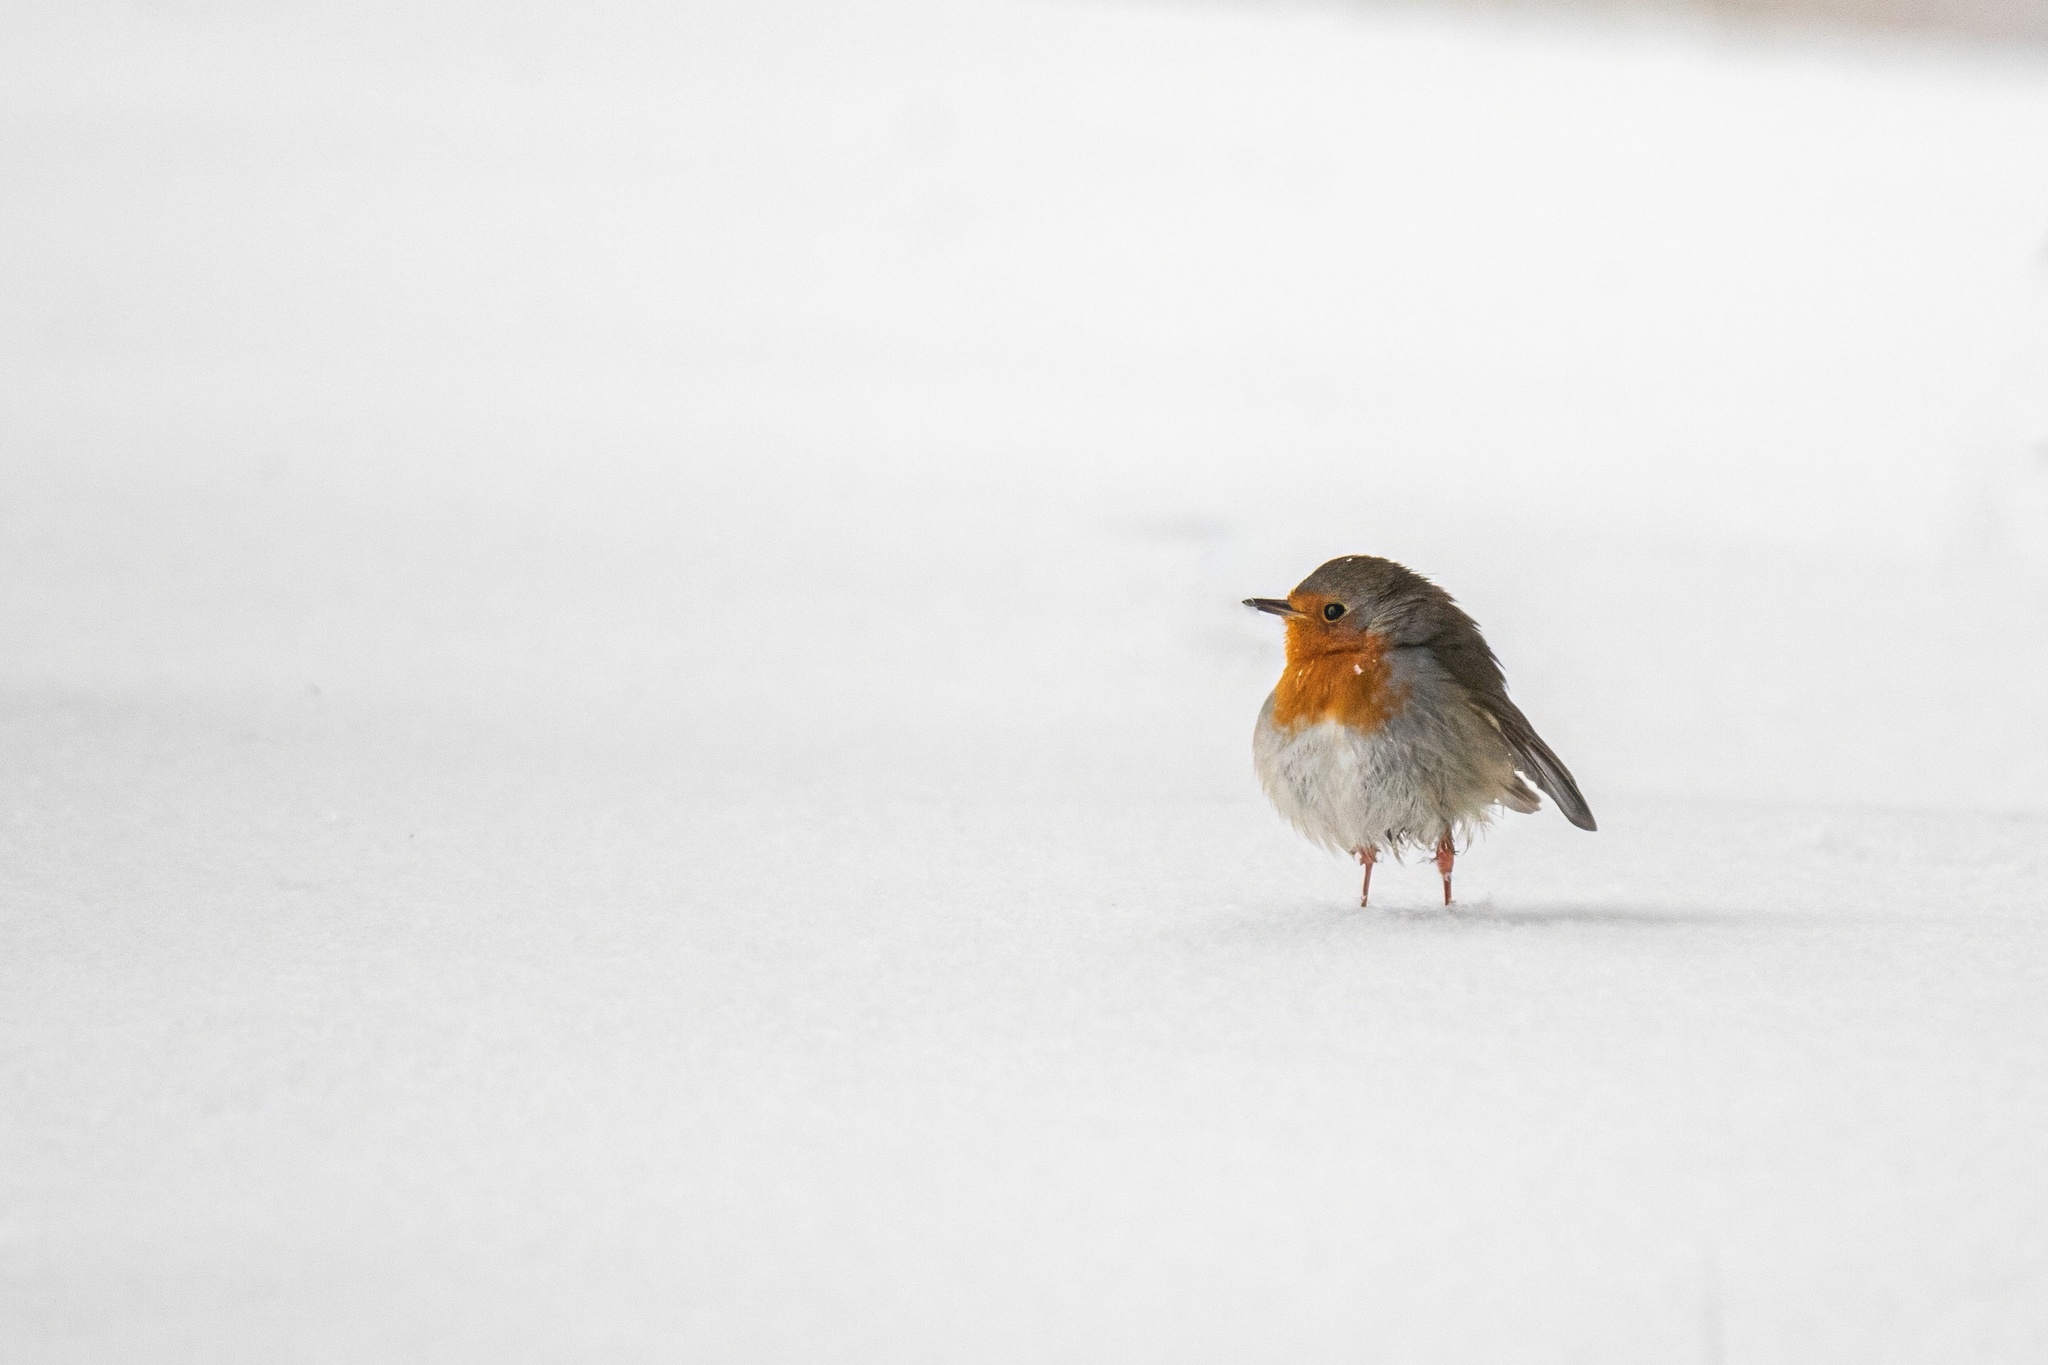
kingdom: Animalia
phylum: Chordata
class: Aves
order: Passeriformes
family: Muscicapidae
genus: Erithacus
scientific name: Erithacus rubecula
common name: European robin
